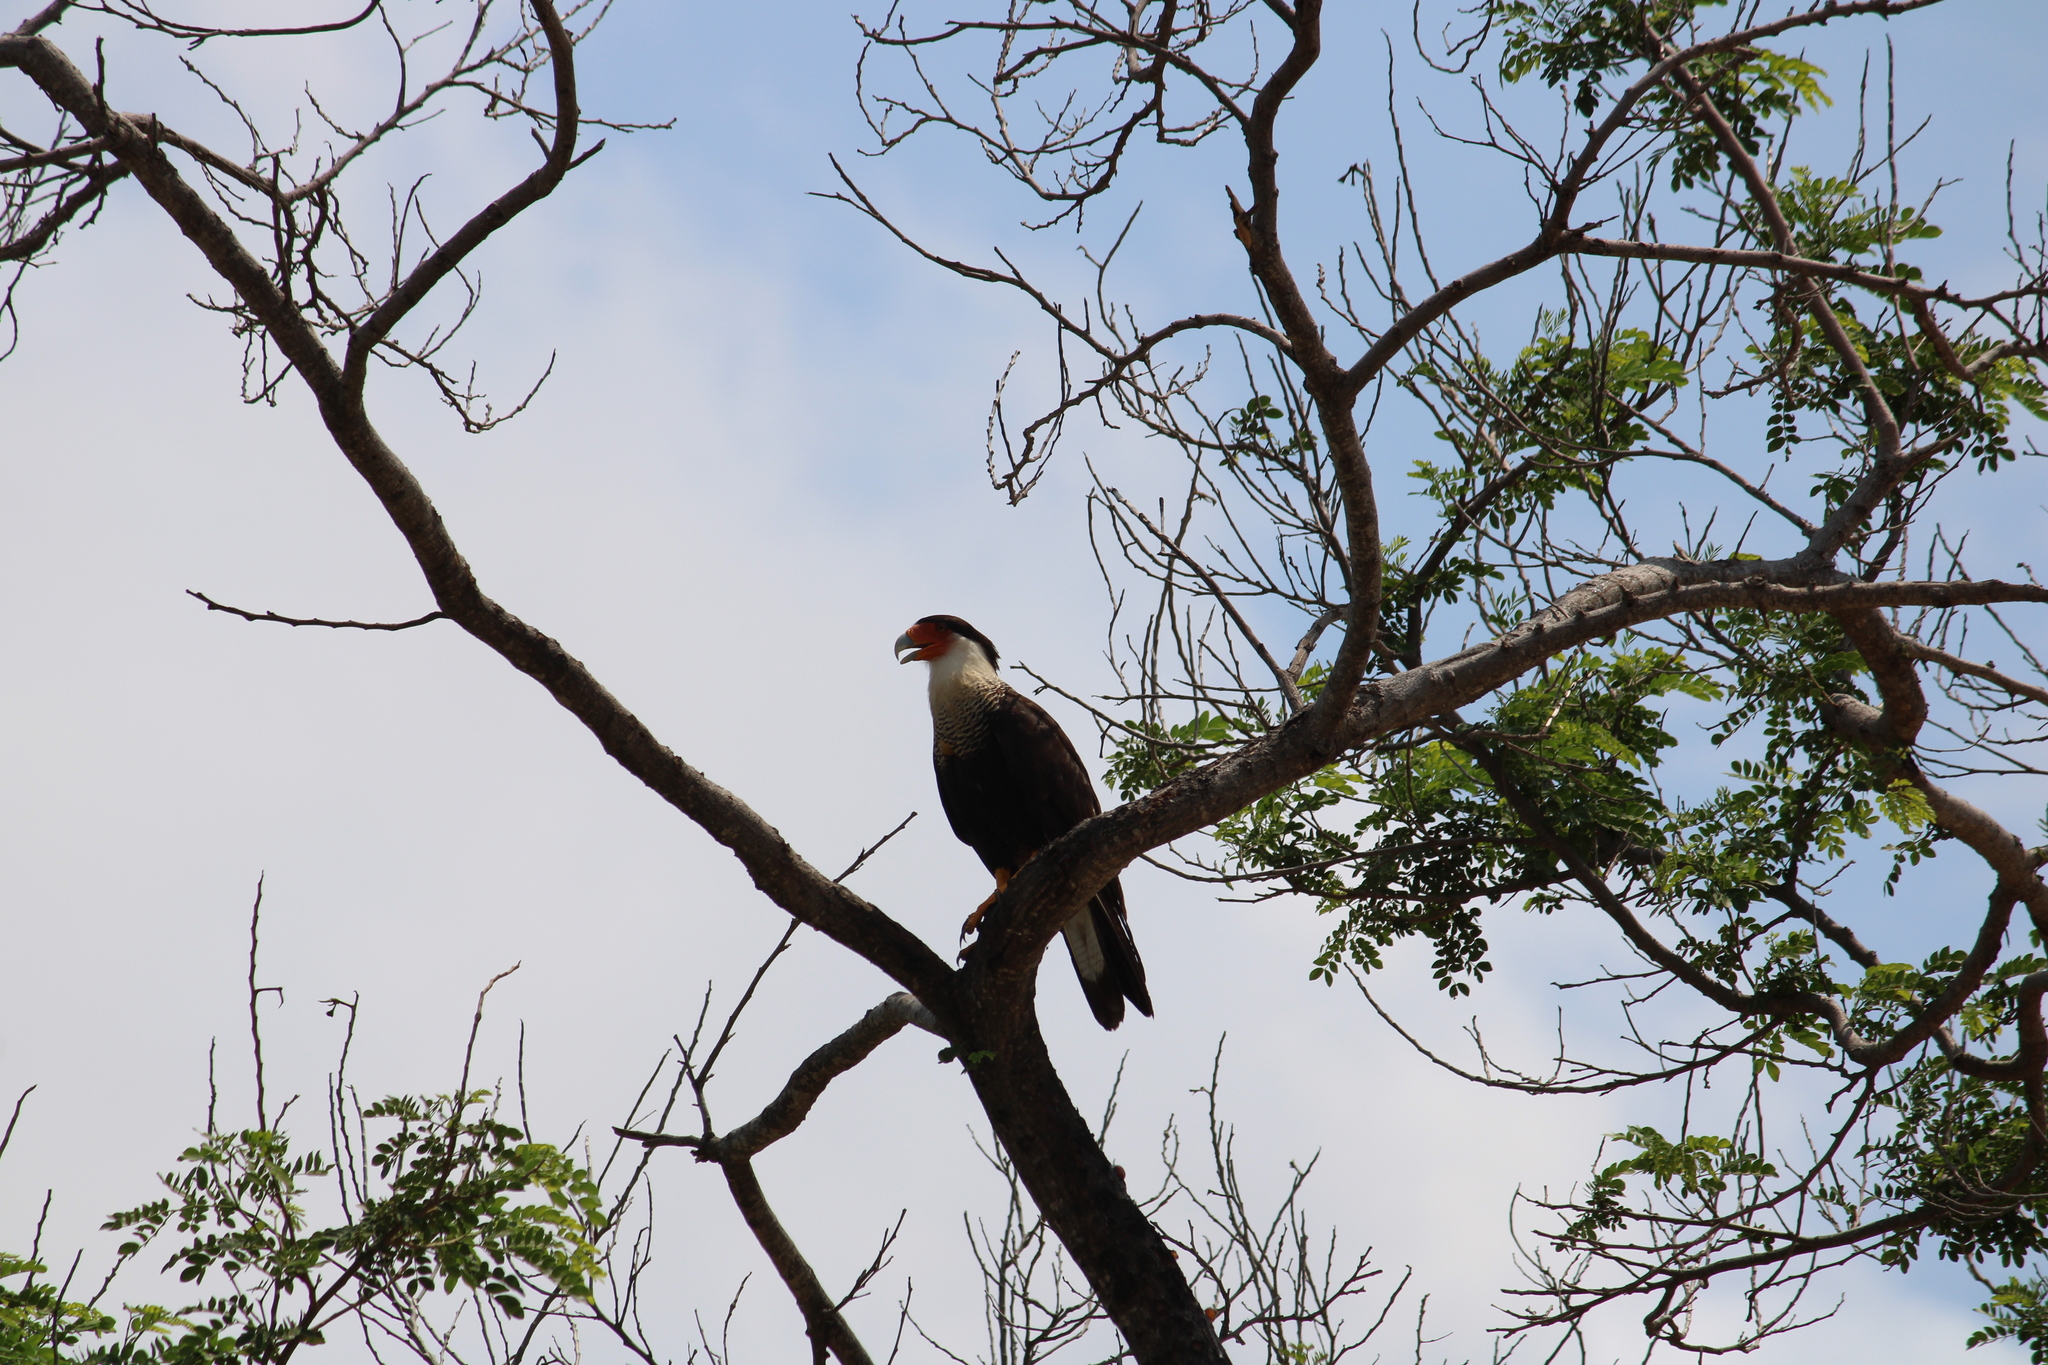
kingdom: Animalia
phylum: Chordata
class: Aves
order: Falconiformes
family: Falconidae
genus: Caracara
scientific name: Caracara plancus
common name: Southern caracara
